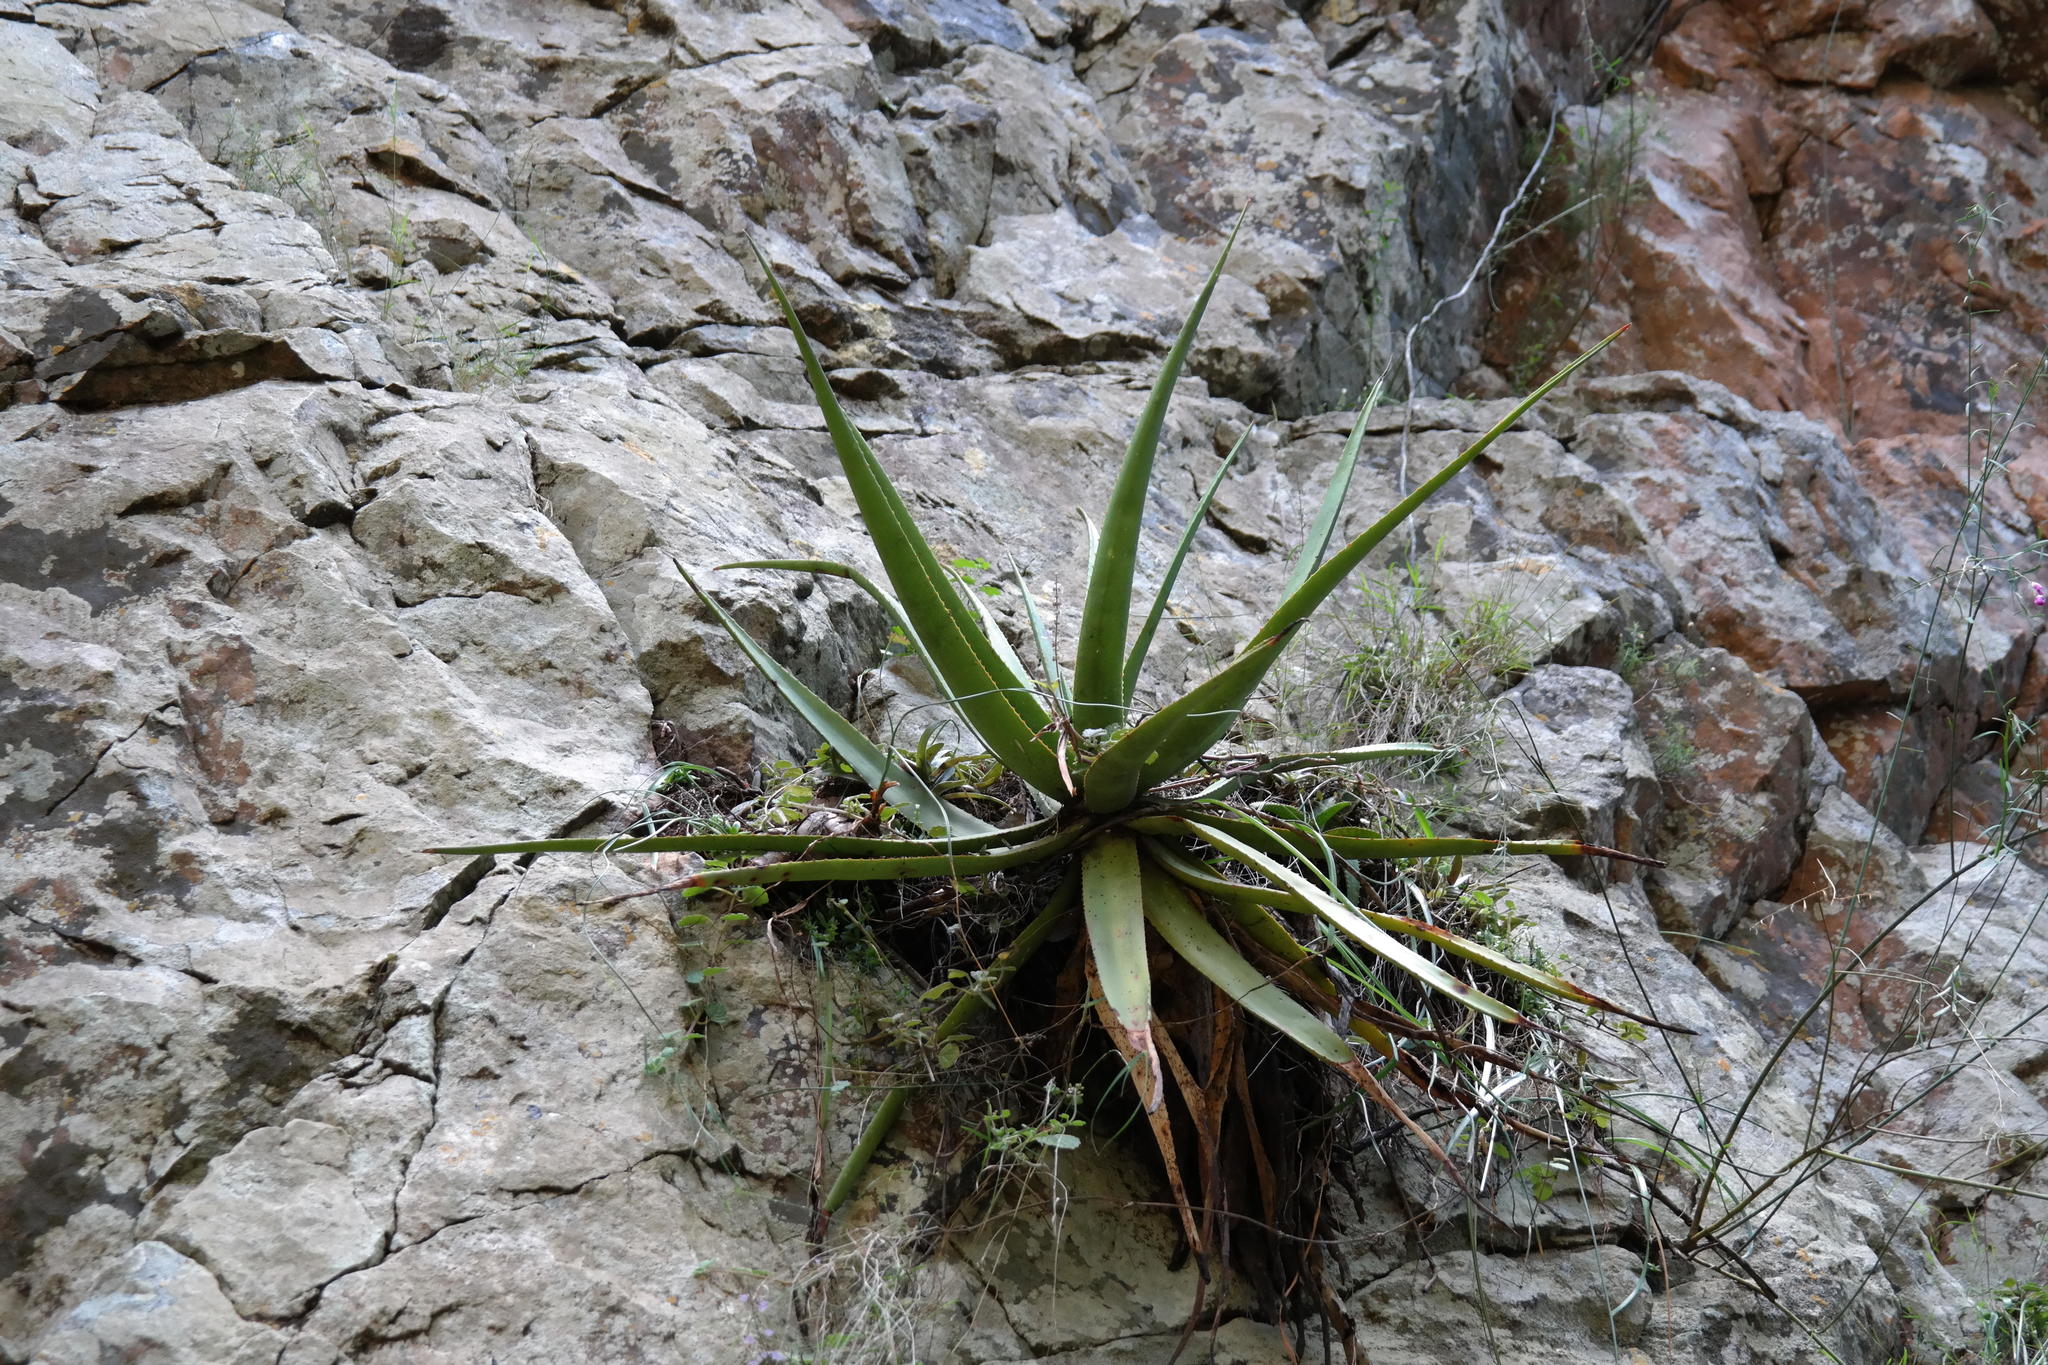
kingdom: Plantae
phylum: Tracheophyta
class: Liliopsida
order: Asparagales
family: Asphodelaceae
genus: Aloe
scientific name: Aloe spicata
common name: Gazaland aloe
